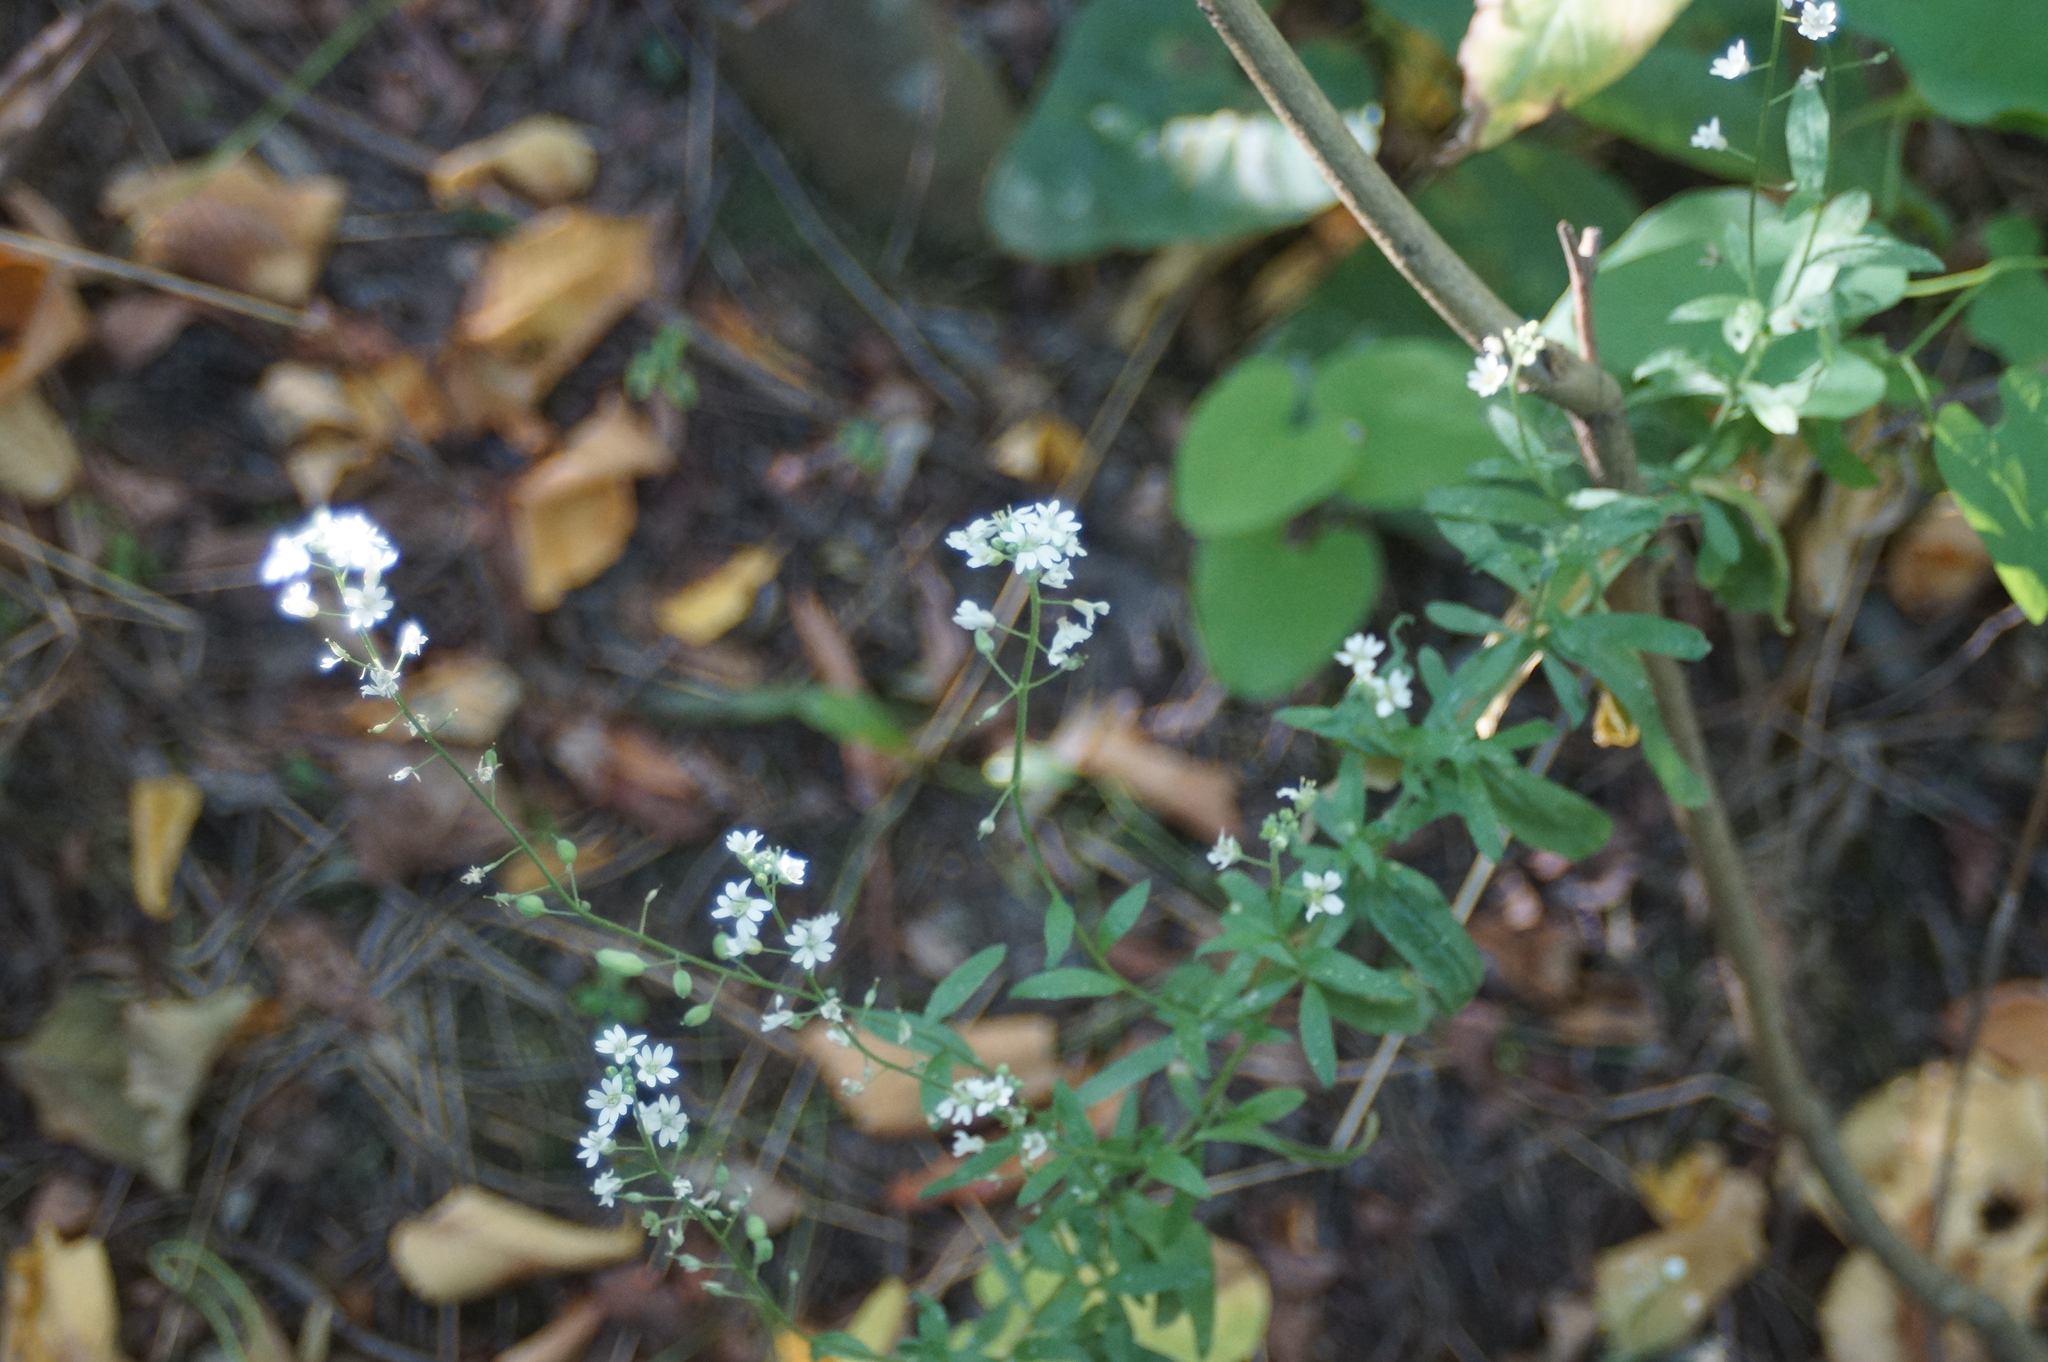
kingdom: Plantae
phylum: Tracheophyta
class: Magnoliopsida
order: Brassicales
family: Brassicaceae
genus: Berteroa
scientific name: Berteroa incana
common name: Hoary alison
